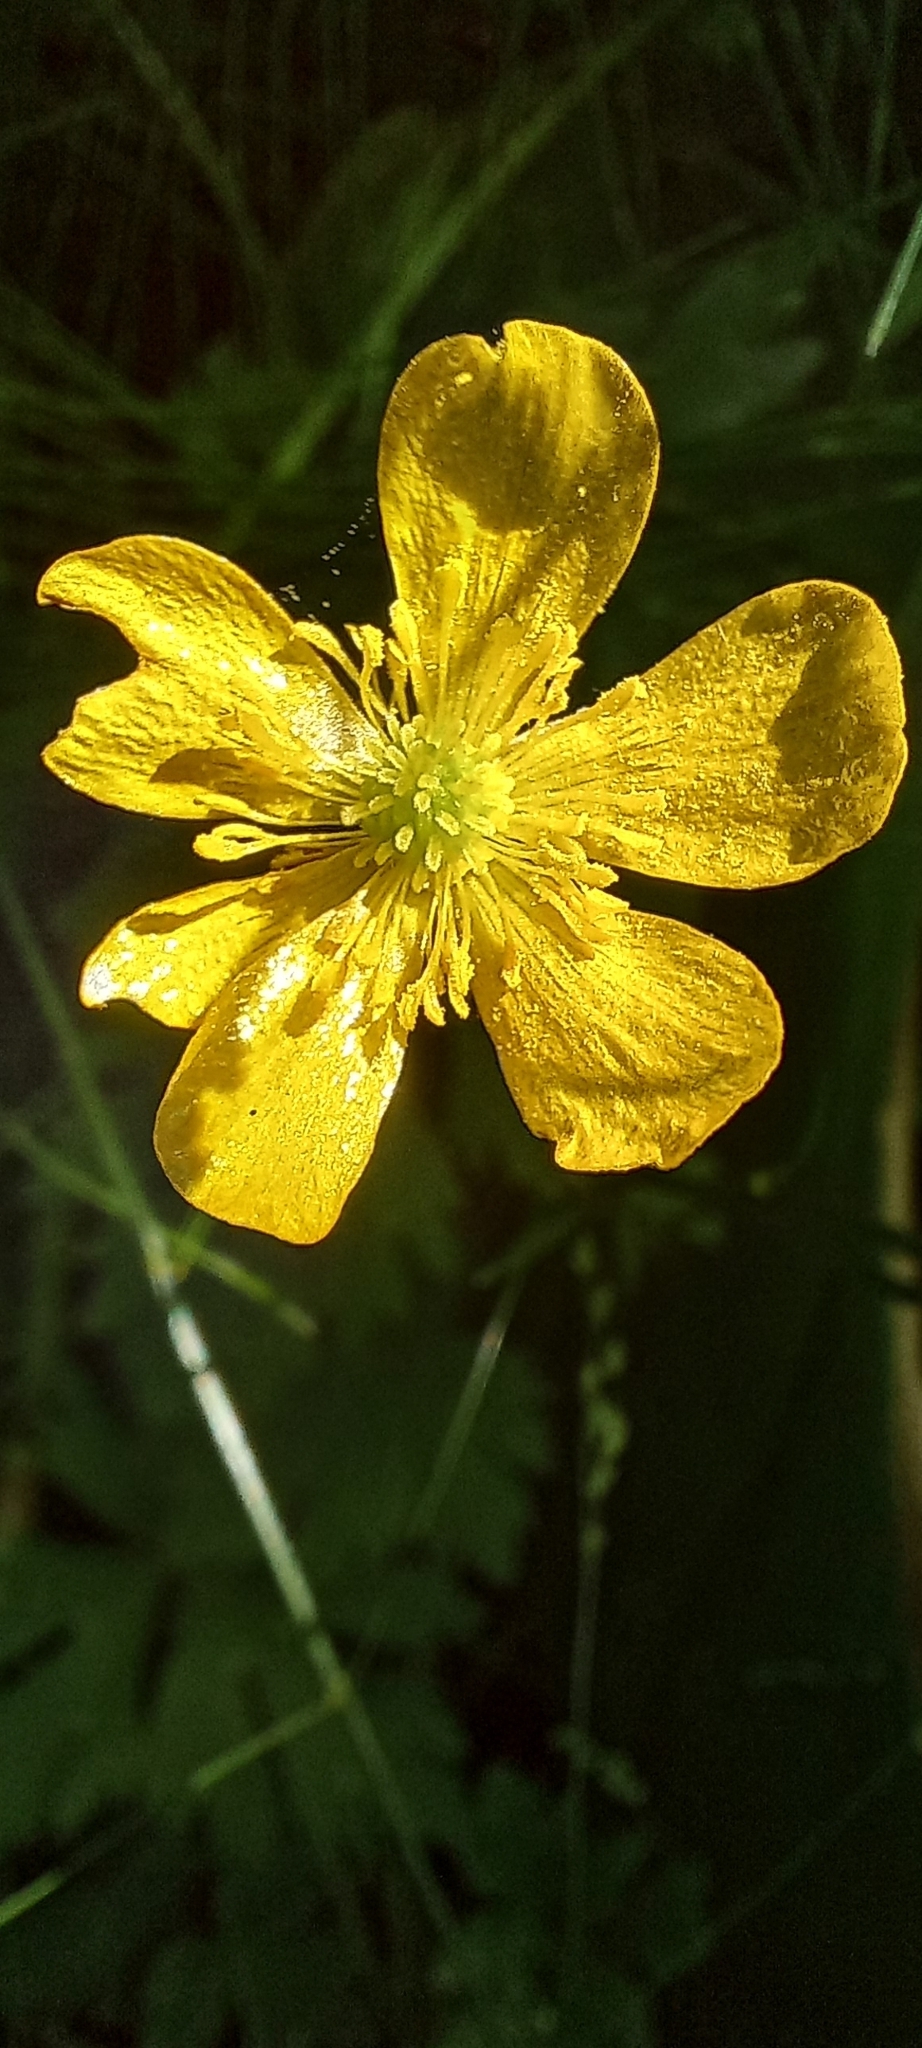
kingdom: Plantae
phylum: Tracheophyta
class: Magnoliopsida
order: Ranunculales
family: Ranunculaceae
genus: Ranunculus
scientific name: Ranunculus repens
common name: Creeping buttercup
